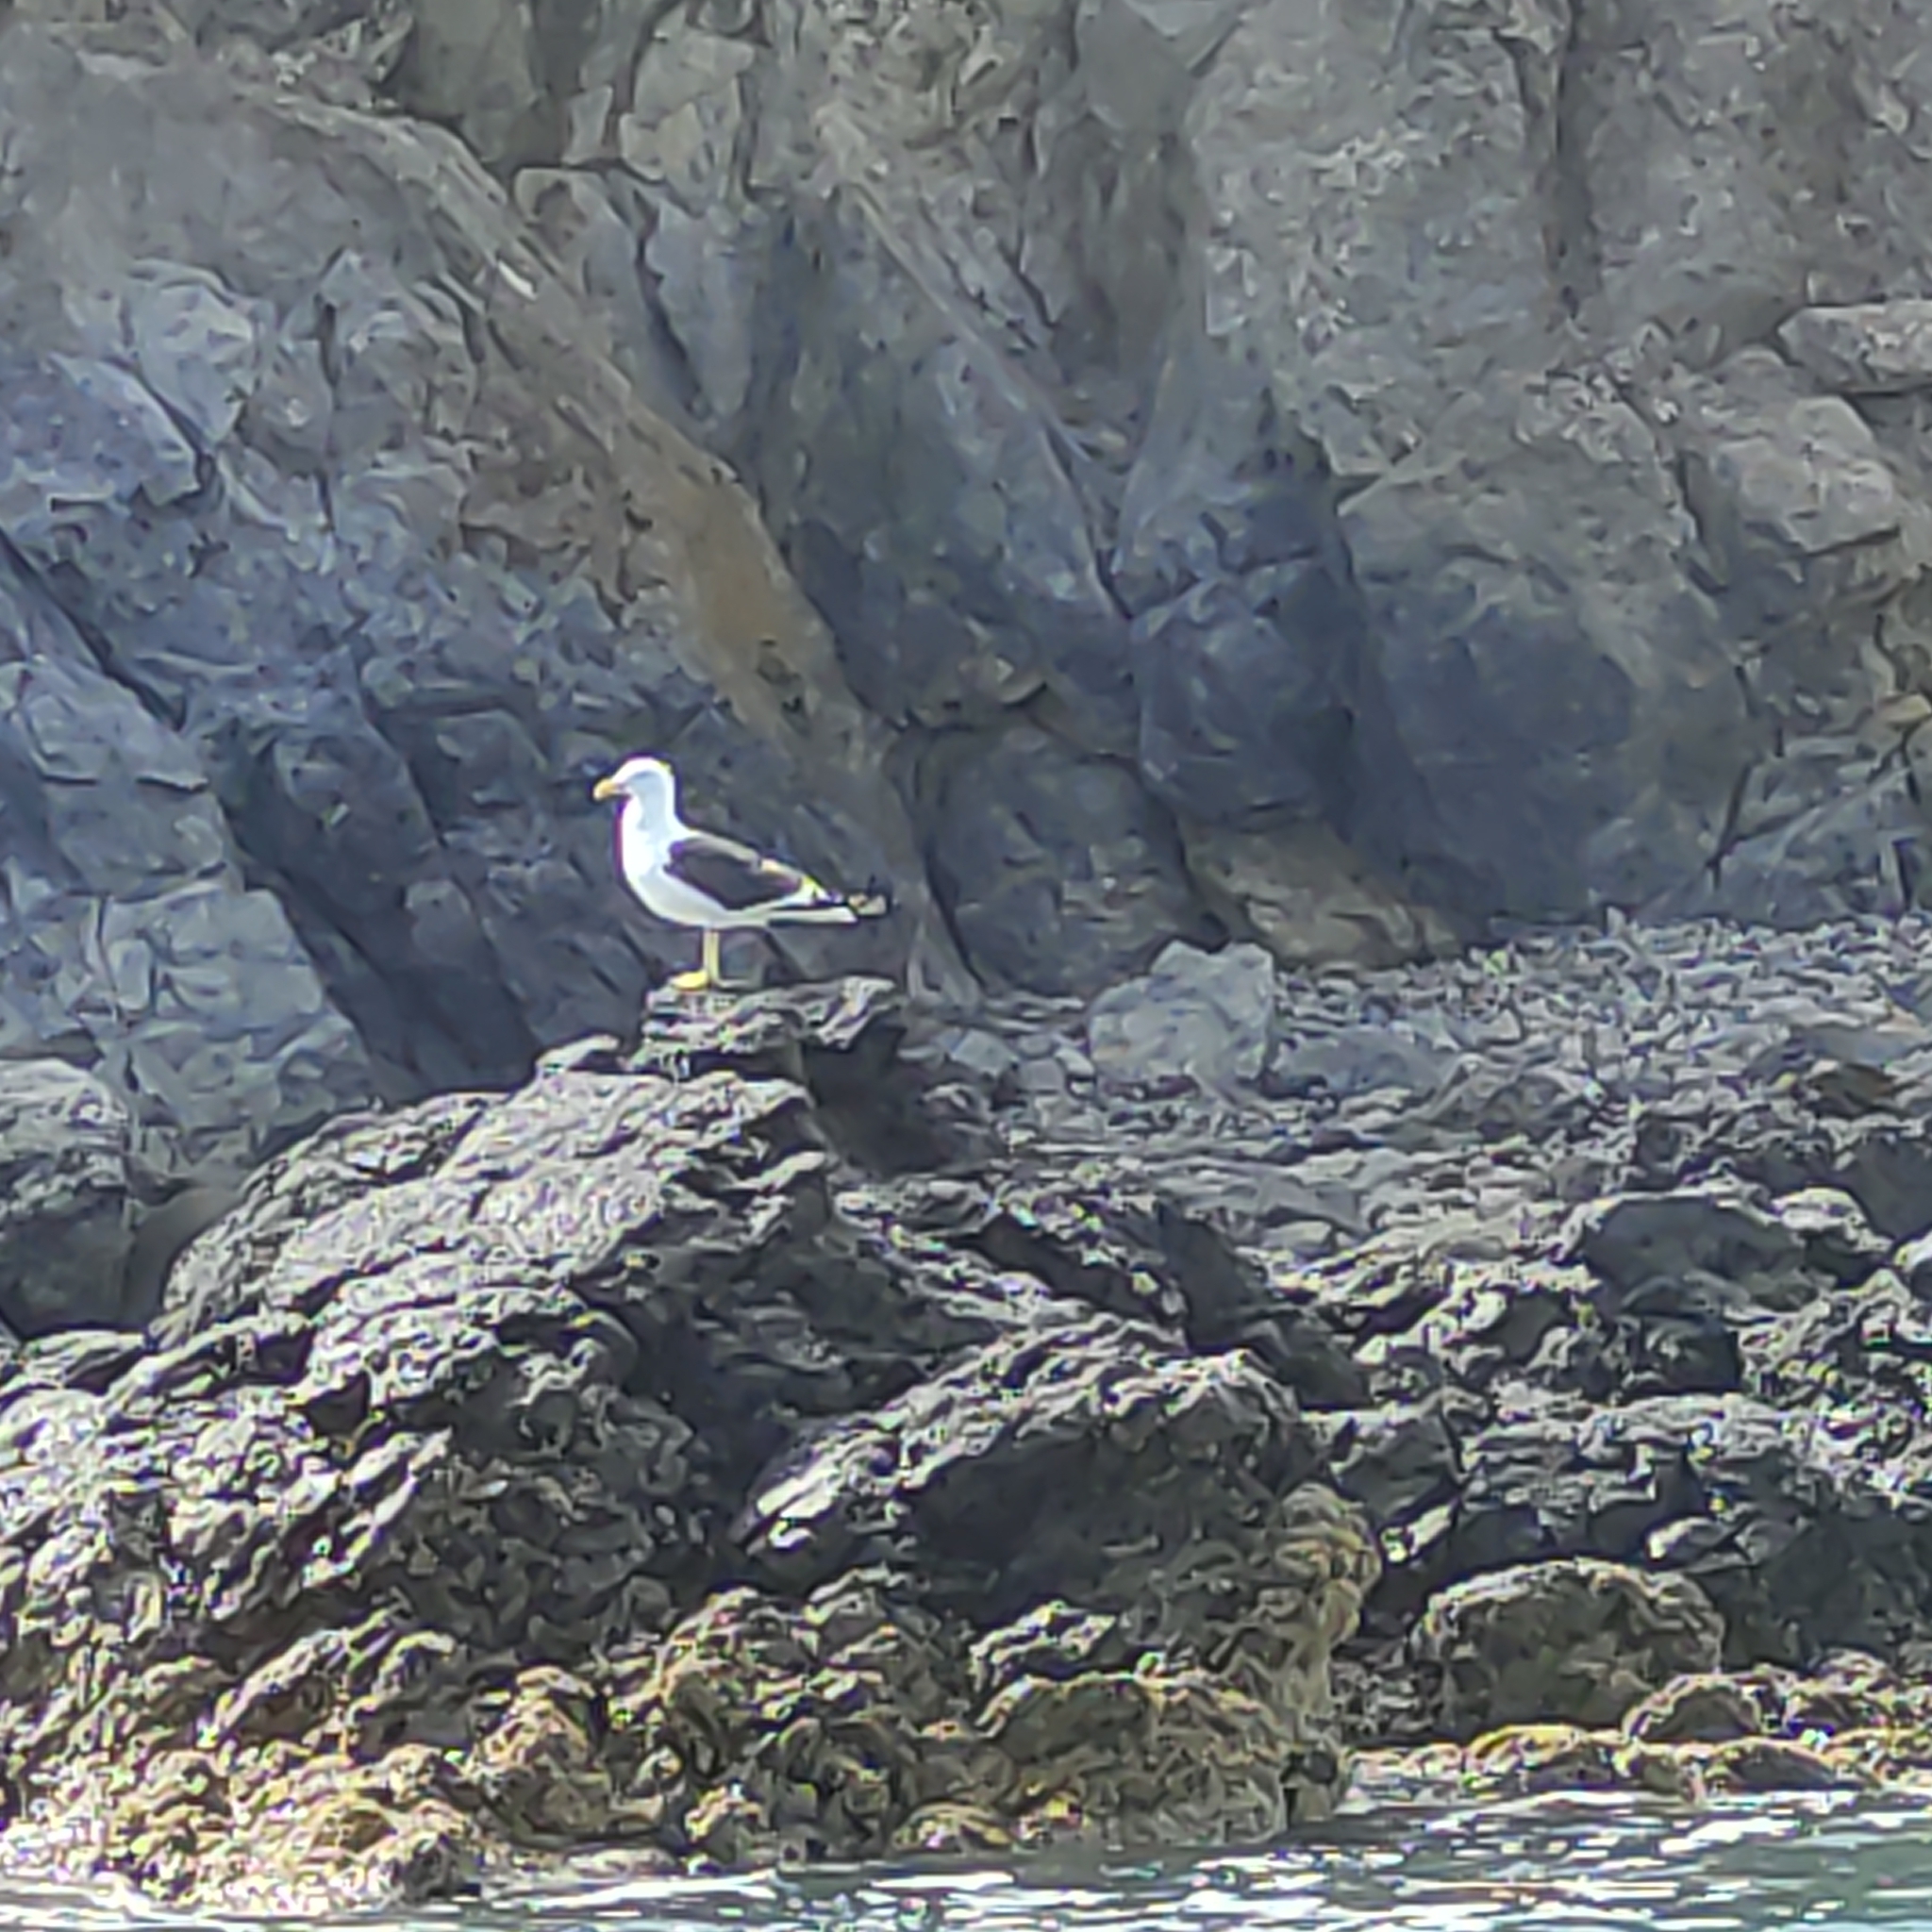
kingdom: Animalia
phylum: Chordata
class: Aves
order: Charadriiformes
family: Laridae
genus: Larus
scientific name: Larus dominicanus
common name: Kelp gull
